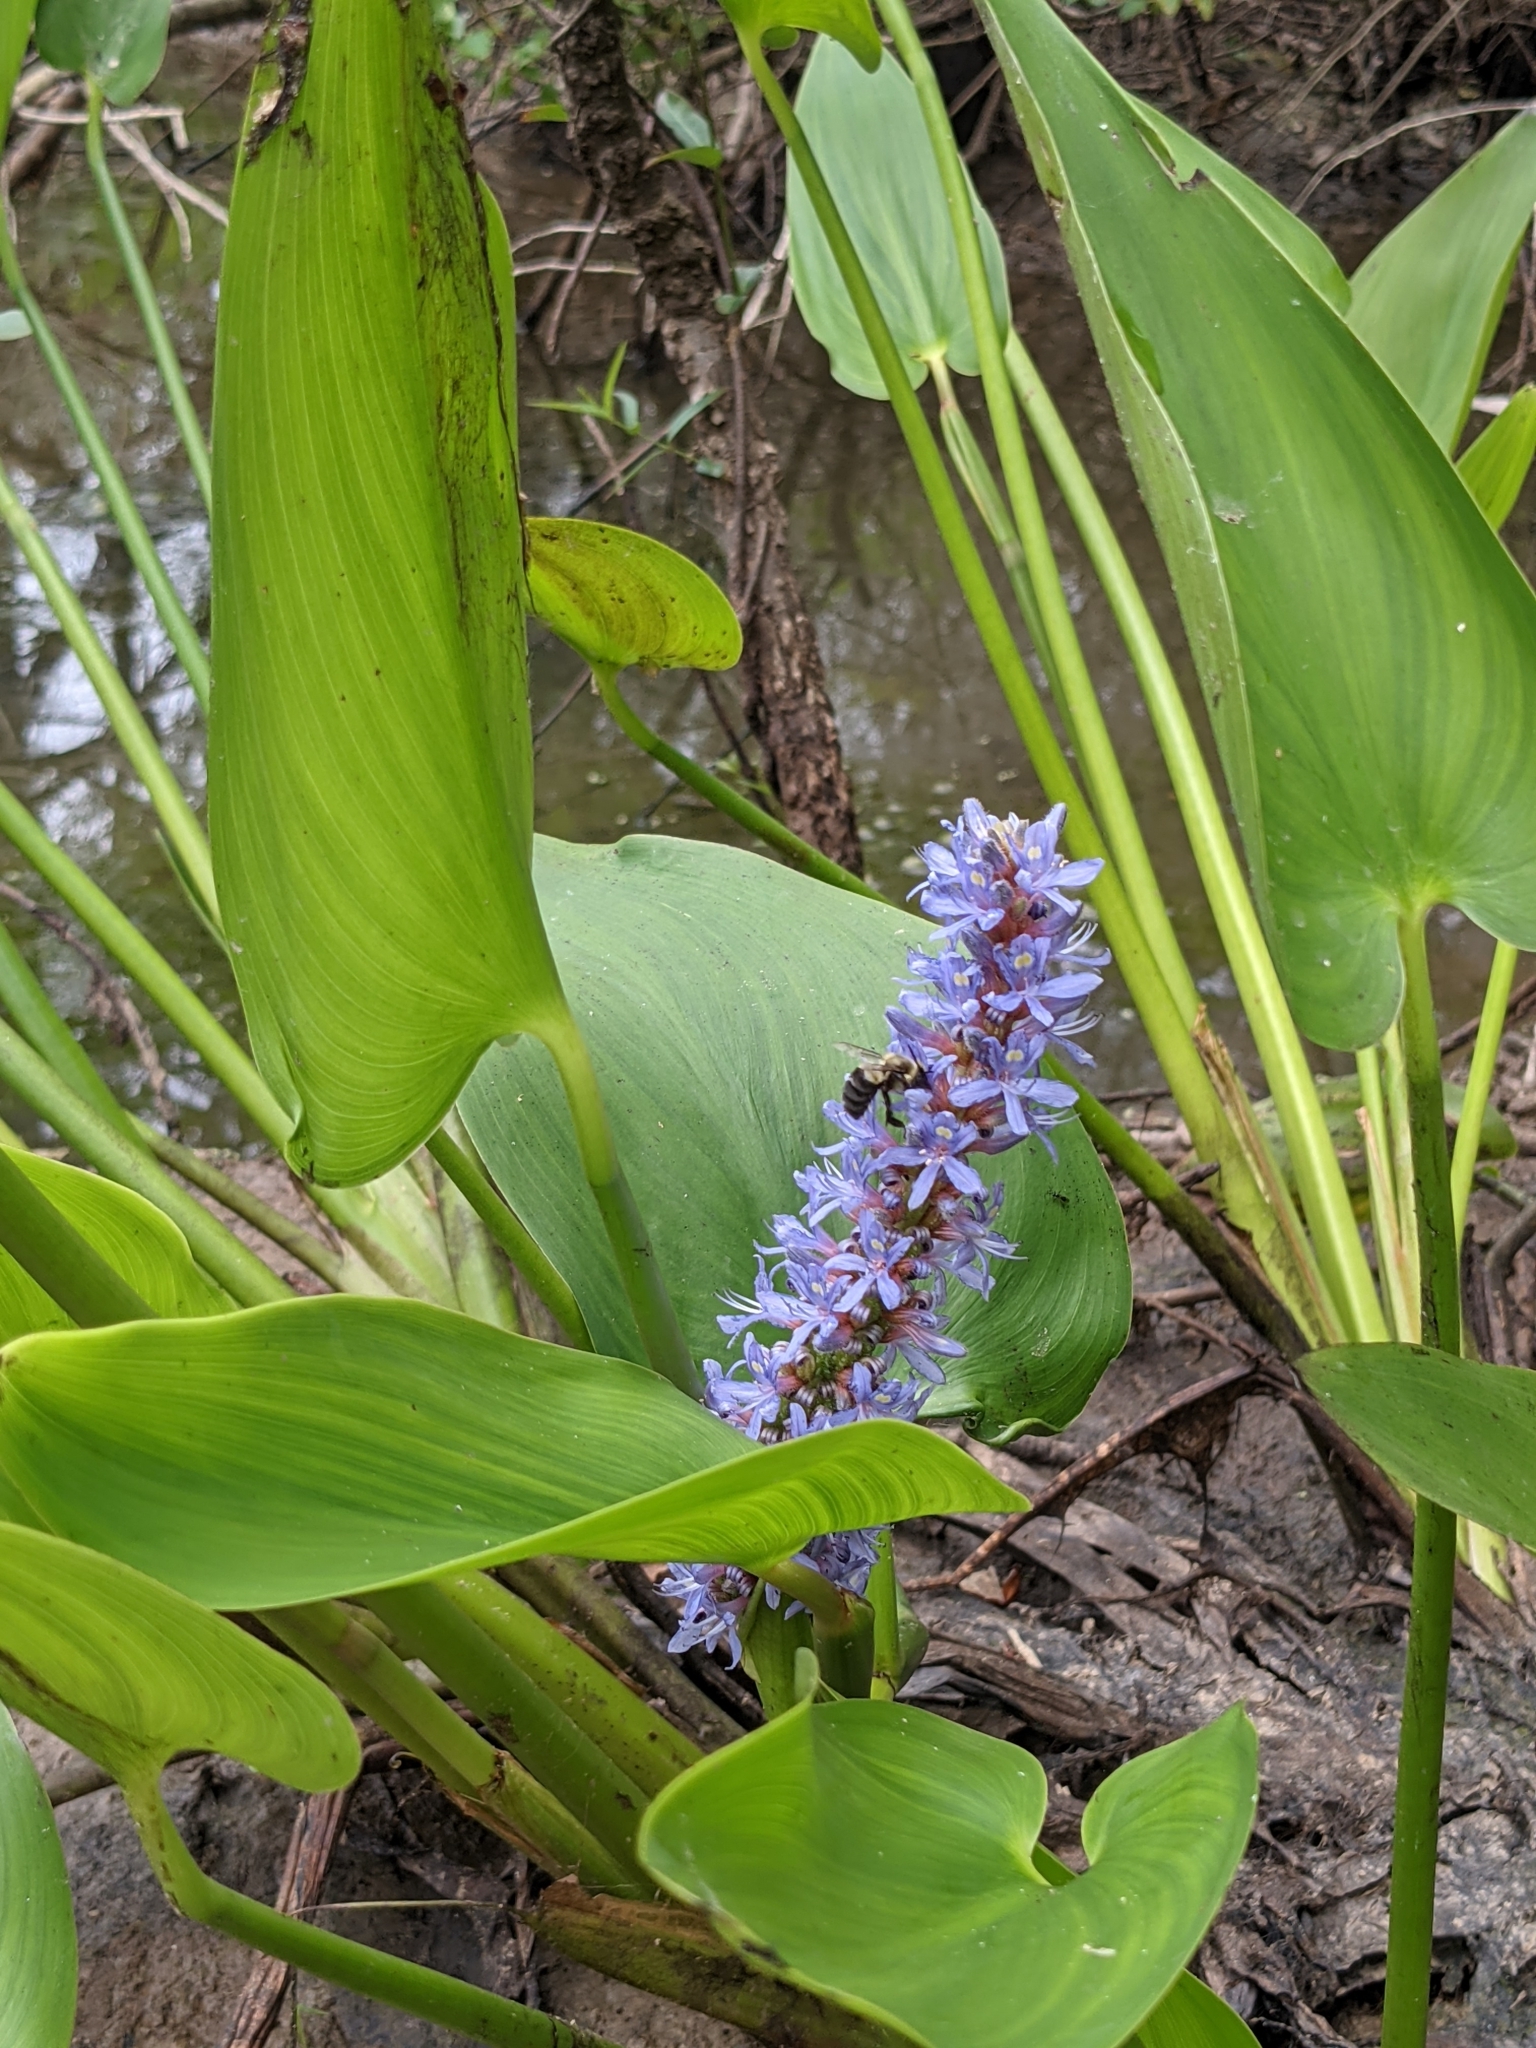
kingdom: Plantae
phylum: Tracheophyta
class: Liliopsida
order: Commelinales
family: Pontederiaceae
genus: Pontederia
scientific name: Pontederia cordata
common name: Pickerelweed
